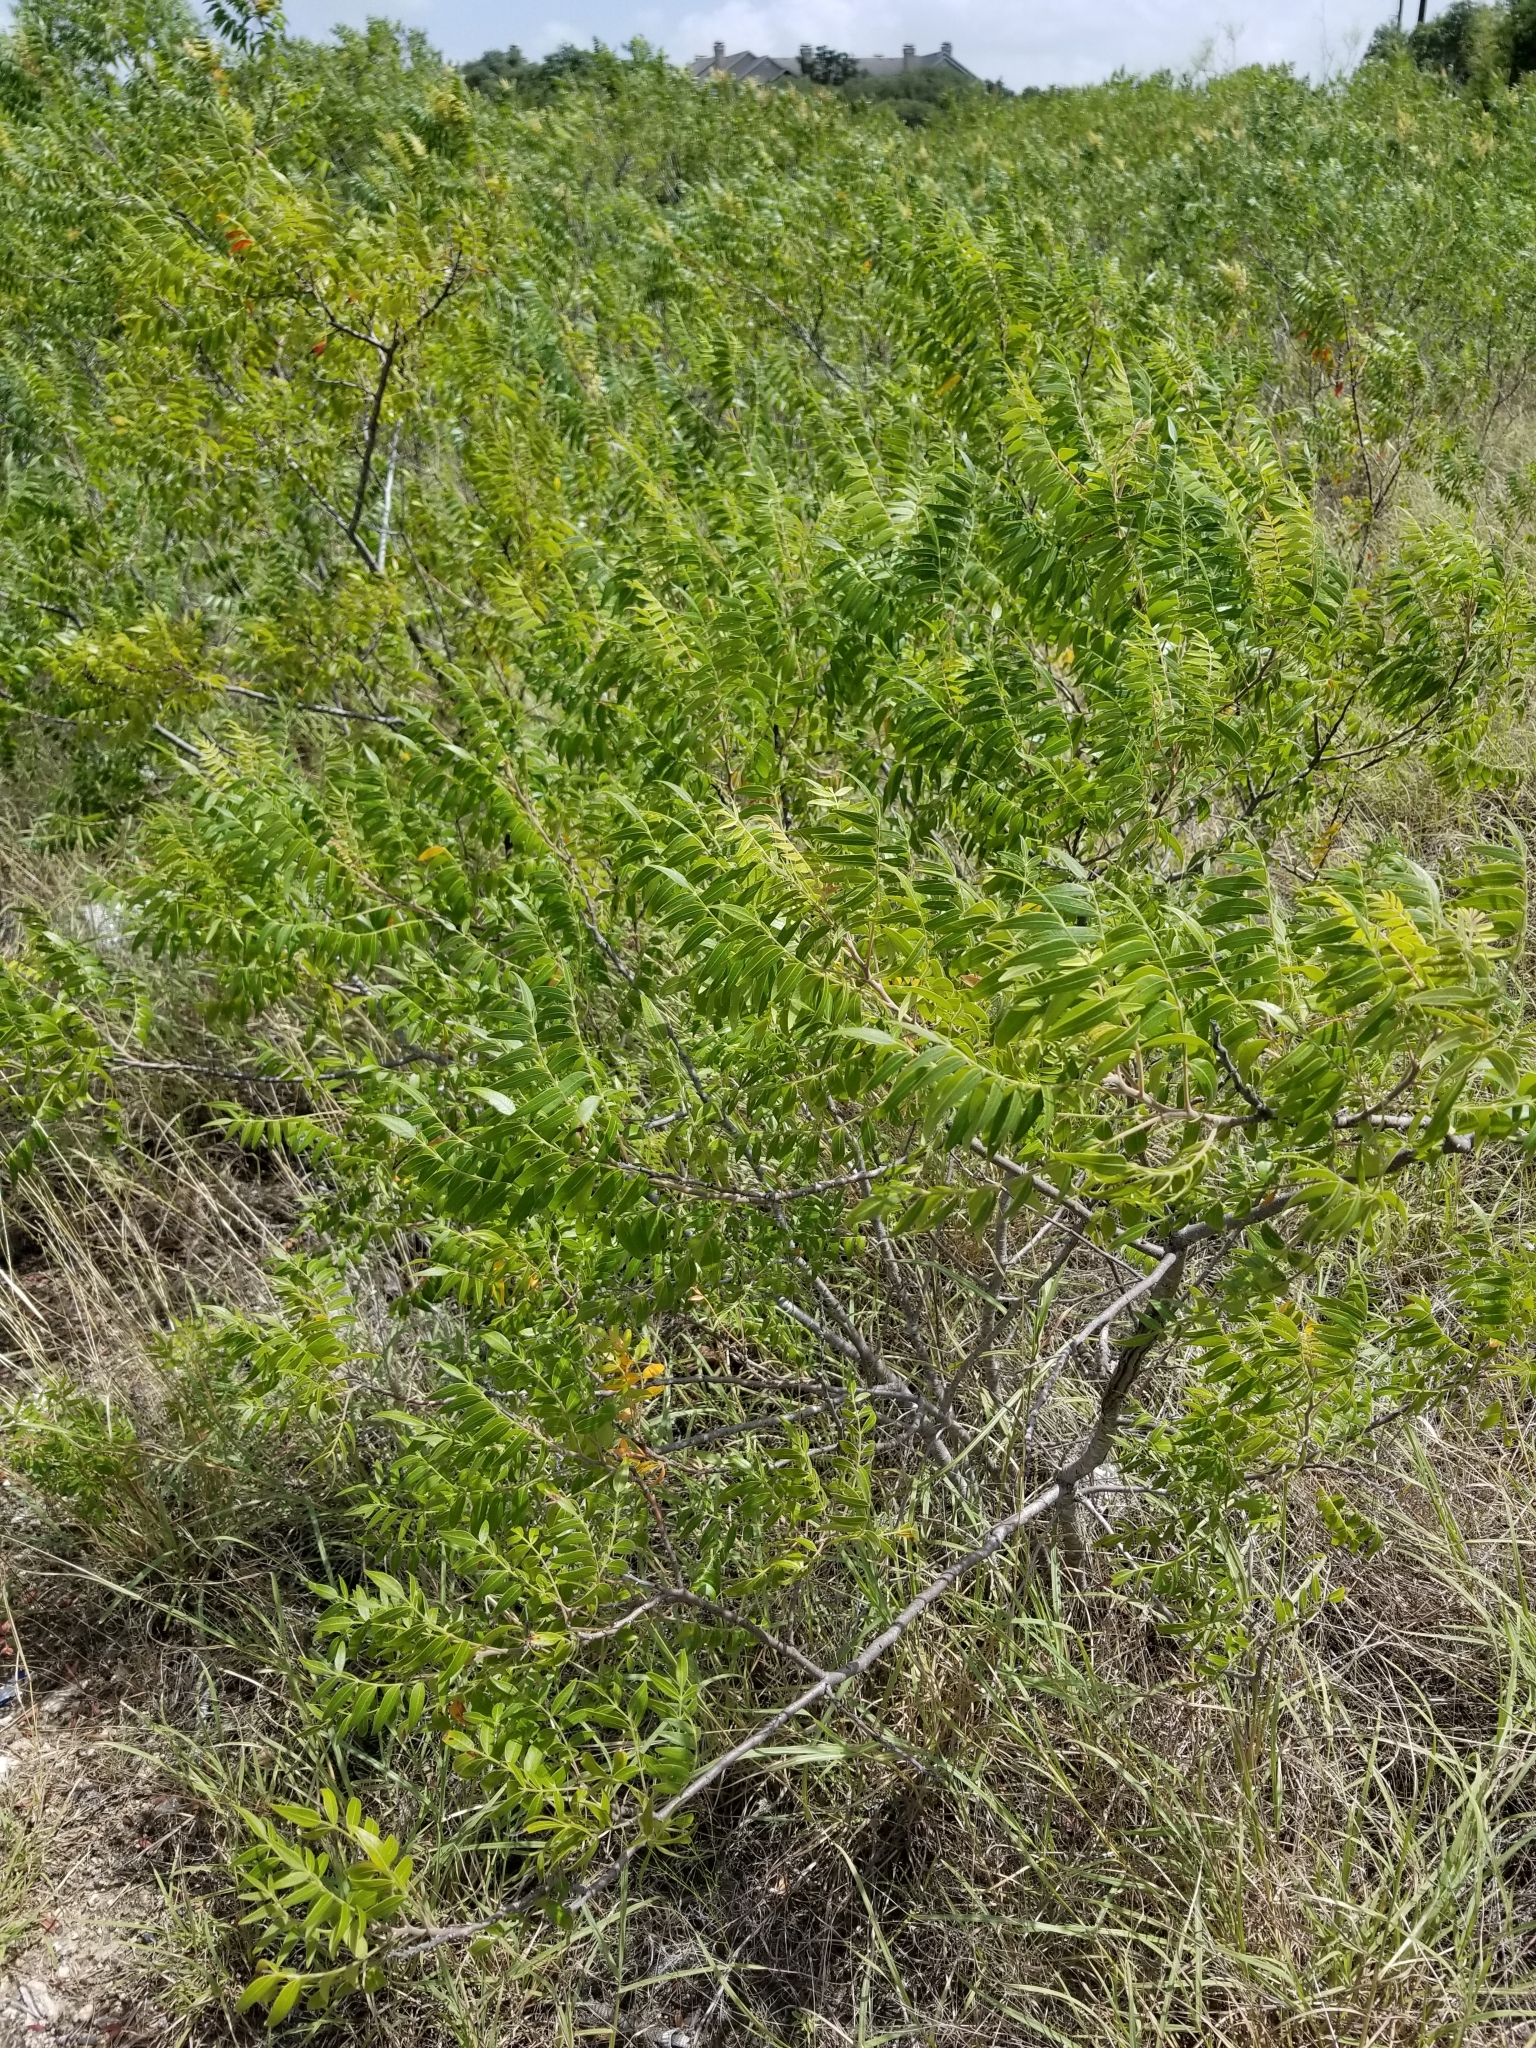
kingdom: Plantae
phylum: Tracheophyta
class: Magnoliopsida
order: Sapindales
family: Anacardiaceae
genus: Rhus
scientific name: Rhus lanceolata
